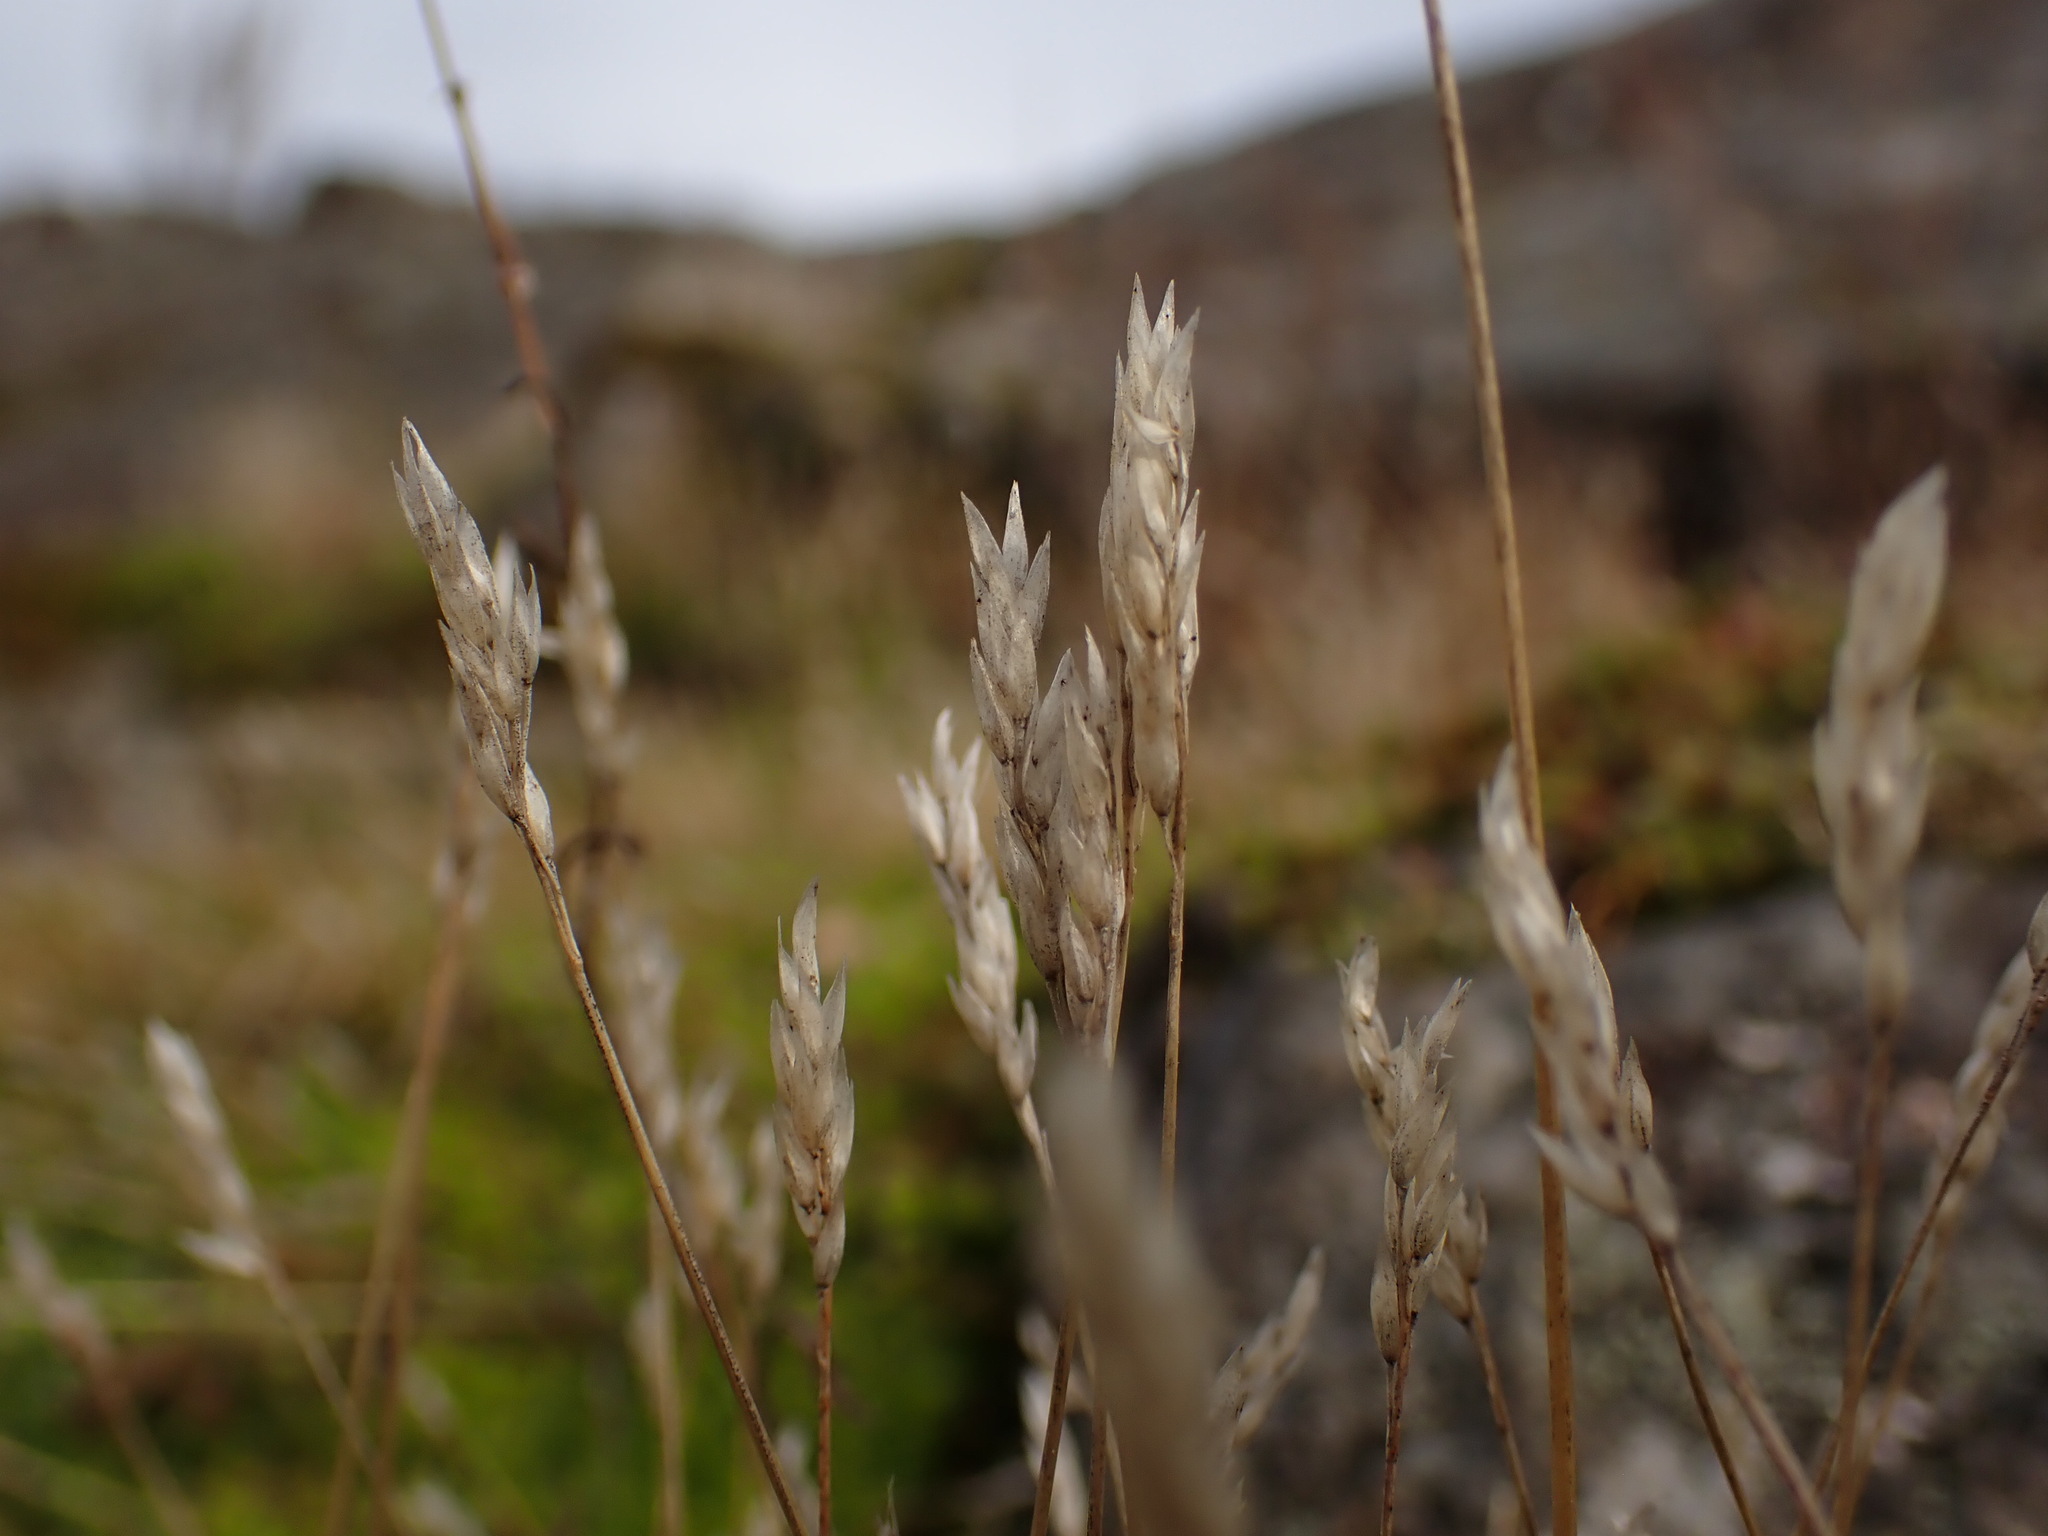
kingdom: Plantae
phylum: Tracheophyta
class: Liliopsida
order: Poales
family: Poaceae
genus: Aira
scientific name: Aira praecox
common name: Early hair-grass
